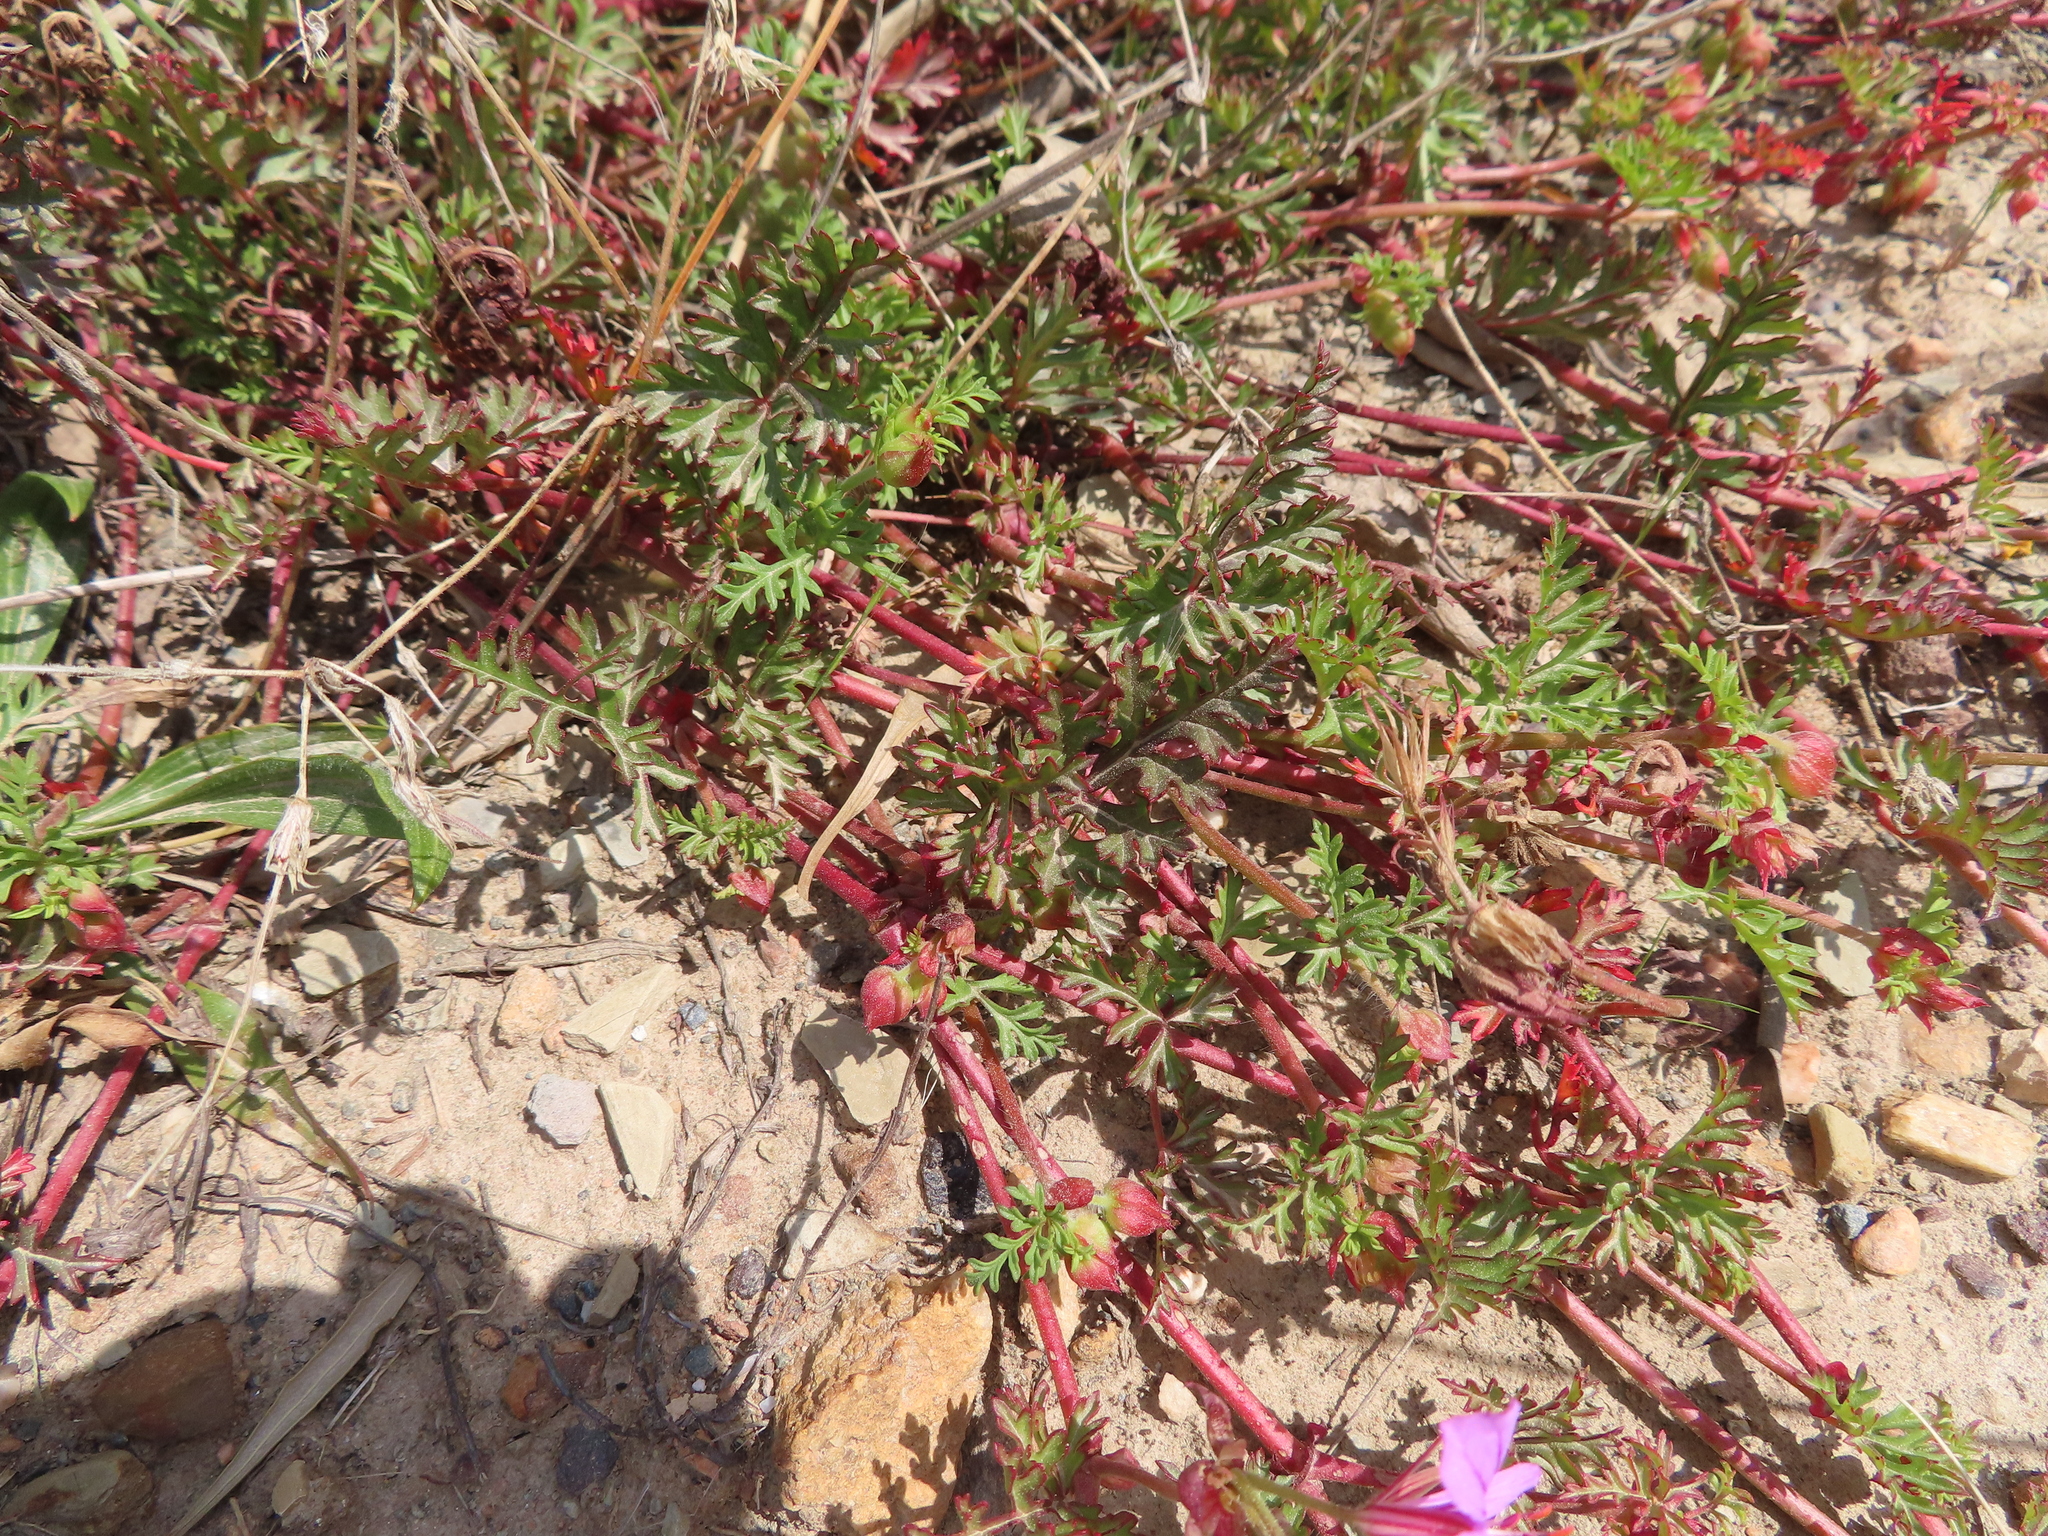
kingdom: Plantae
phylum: Tracheophyta
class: Magnoliopsida
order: Geraniales
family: Geraniaceae
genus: Pelargonium
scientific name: Pelargonium multicaule
